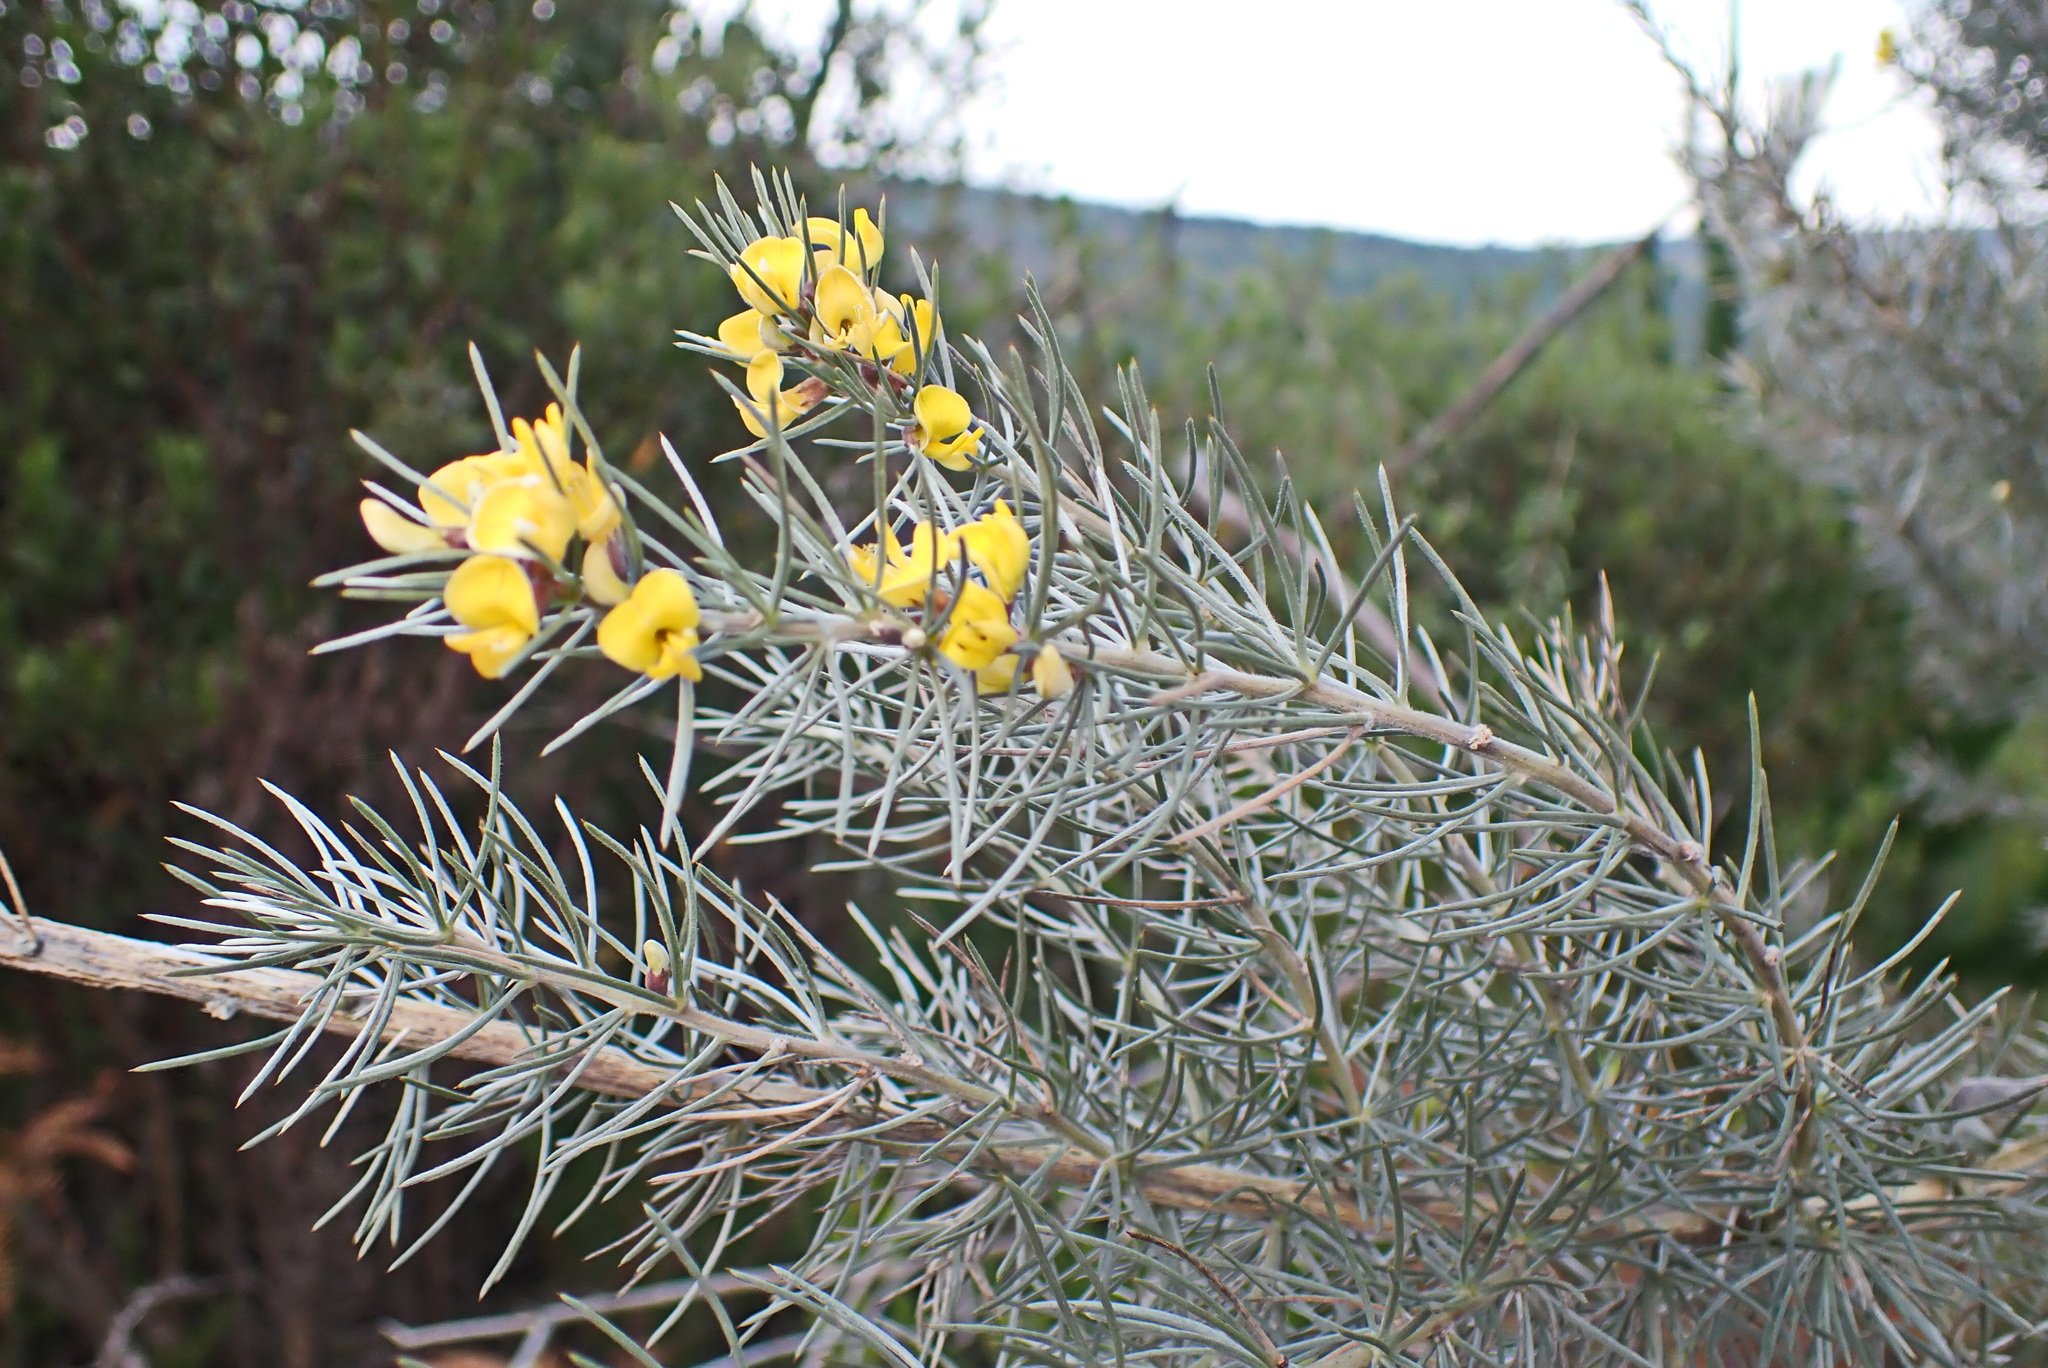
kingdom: Plantae
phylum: Tracheophyta
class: Magnoliopsida
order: Fabales
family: Fabaceae
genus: Aspalathus
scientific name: Aspalathus florifera
